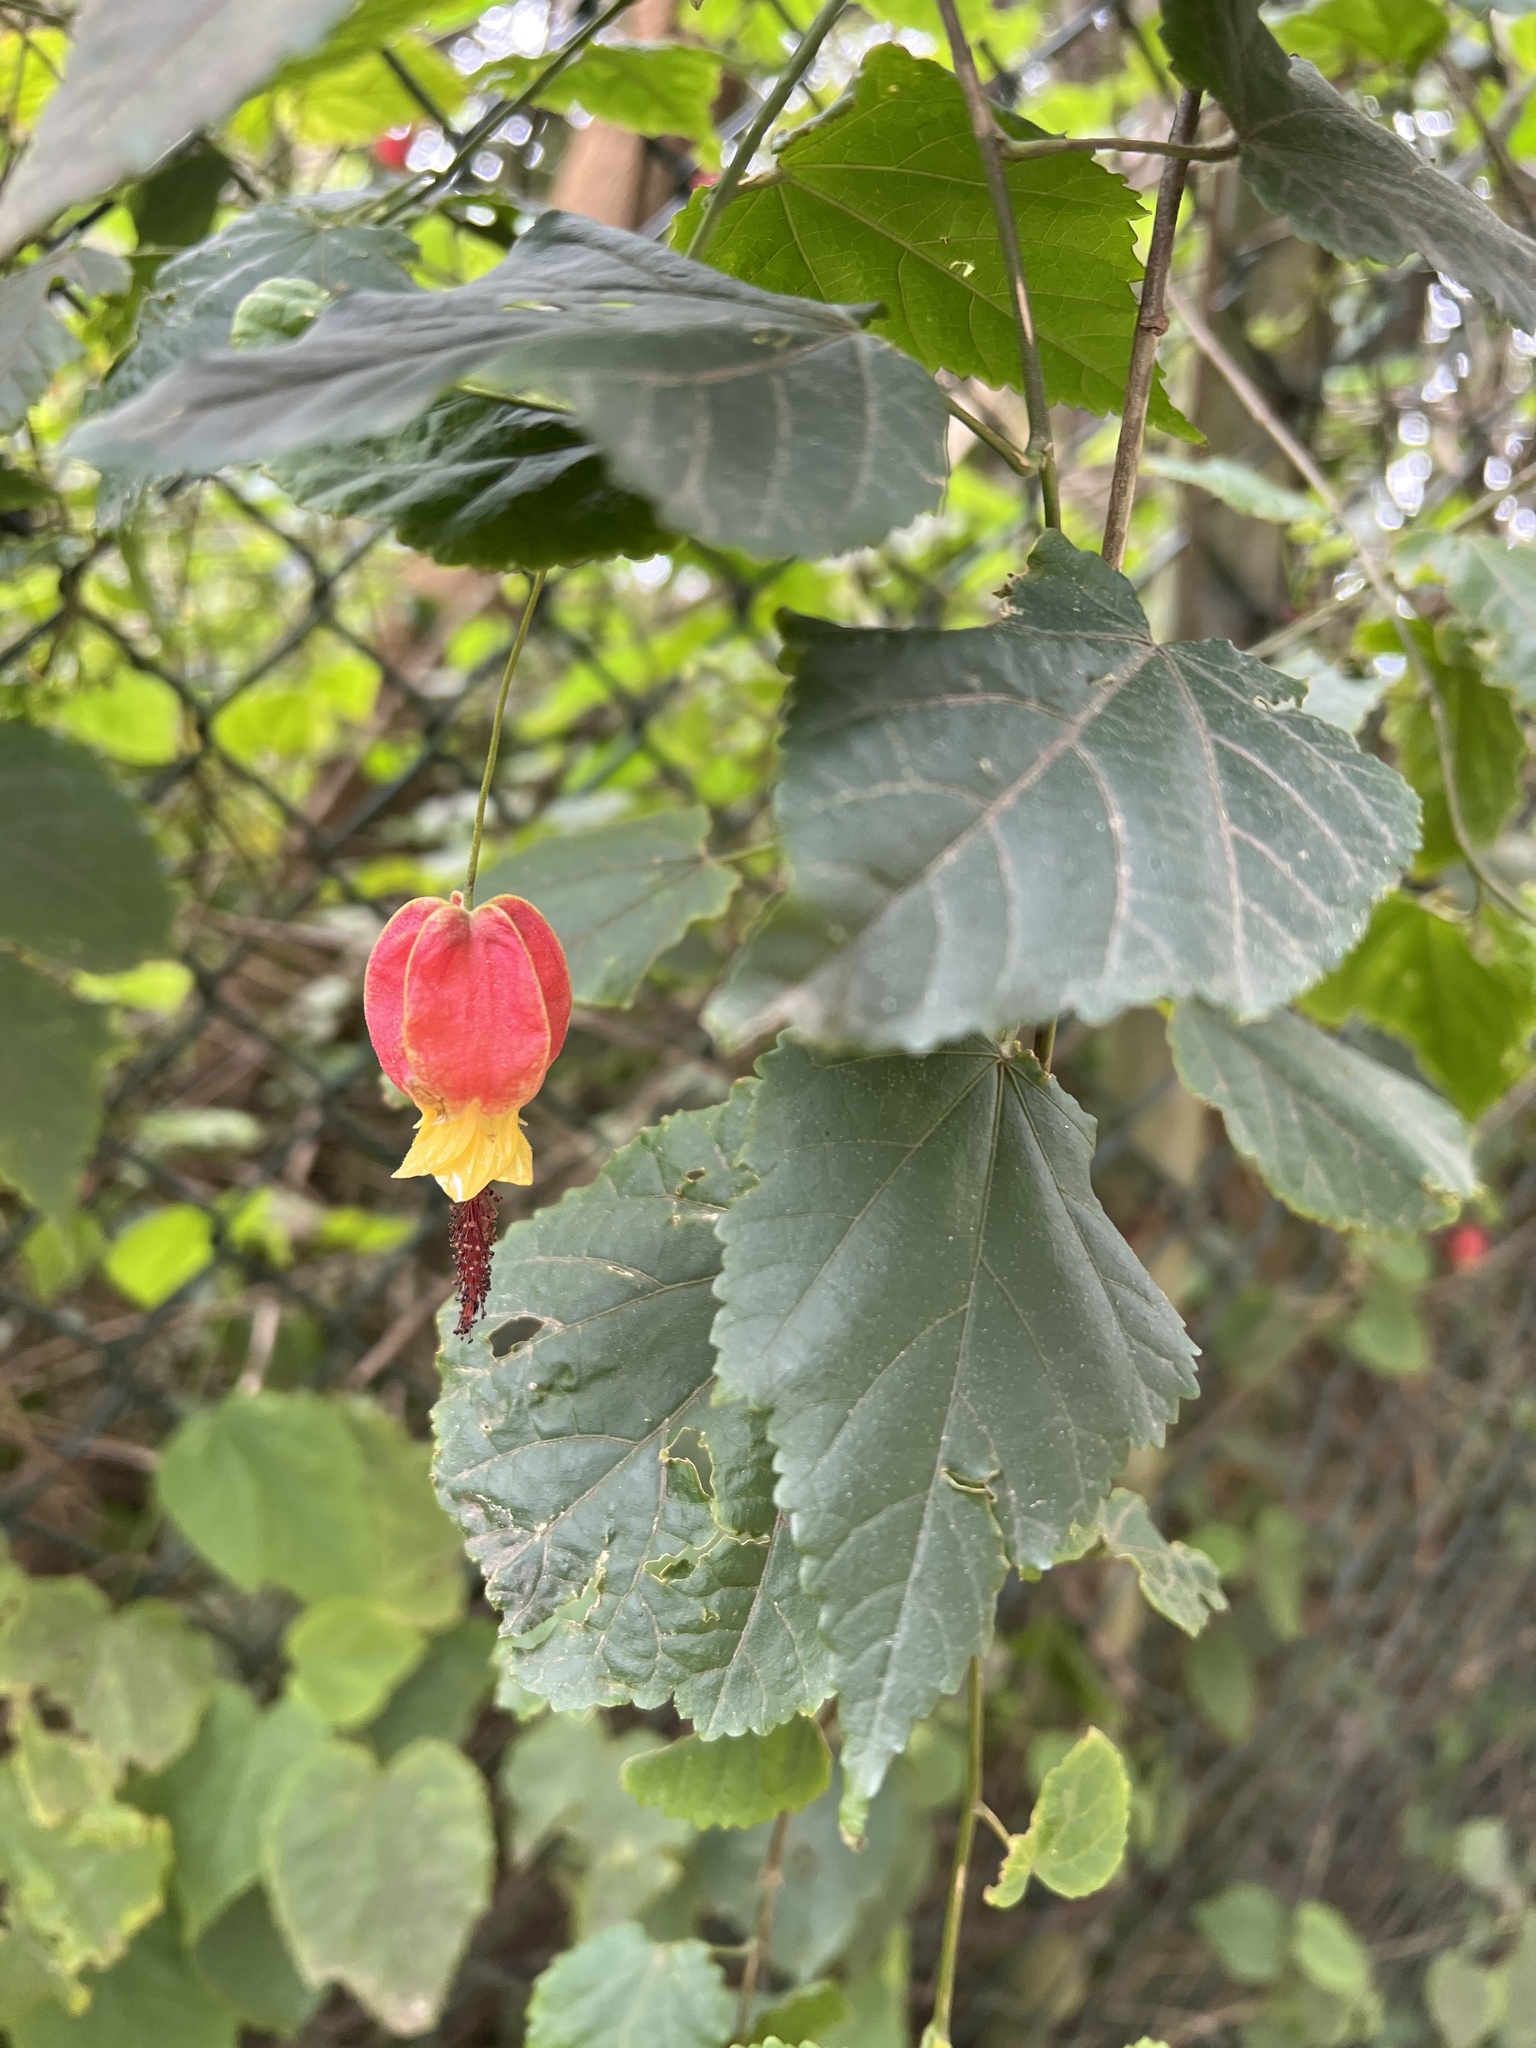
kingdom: Plantae
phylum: Tracheophyta
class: Magnoliopsida
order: Malvales
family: Malvaceae
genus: Callianthe
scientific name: Callianthe megapotamica
